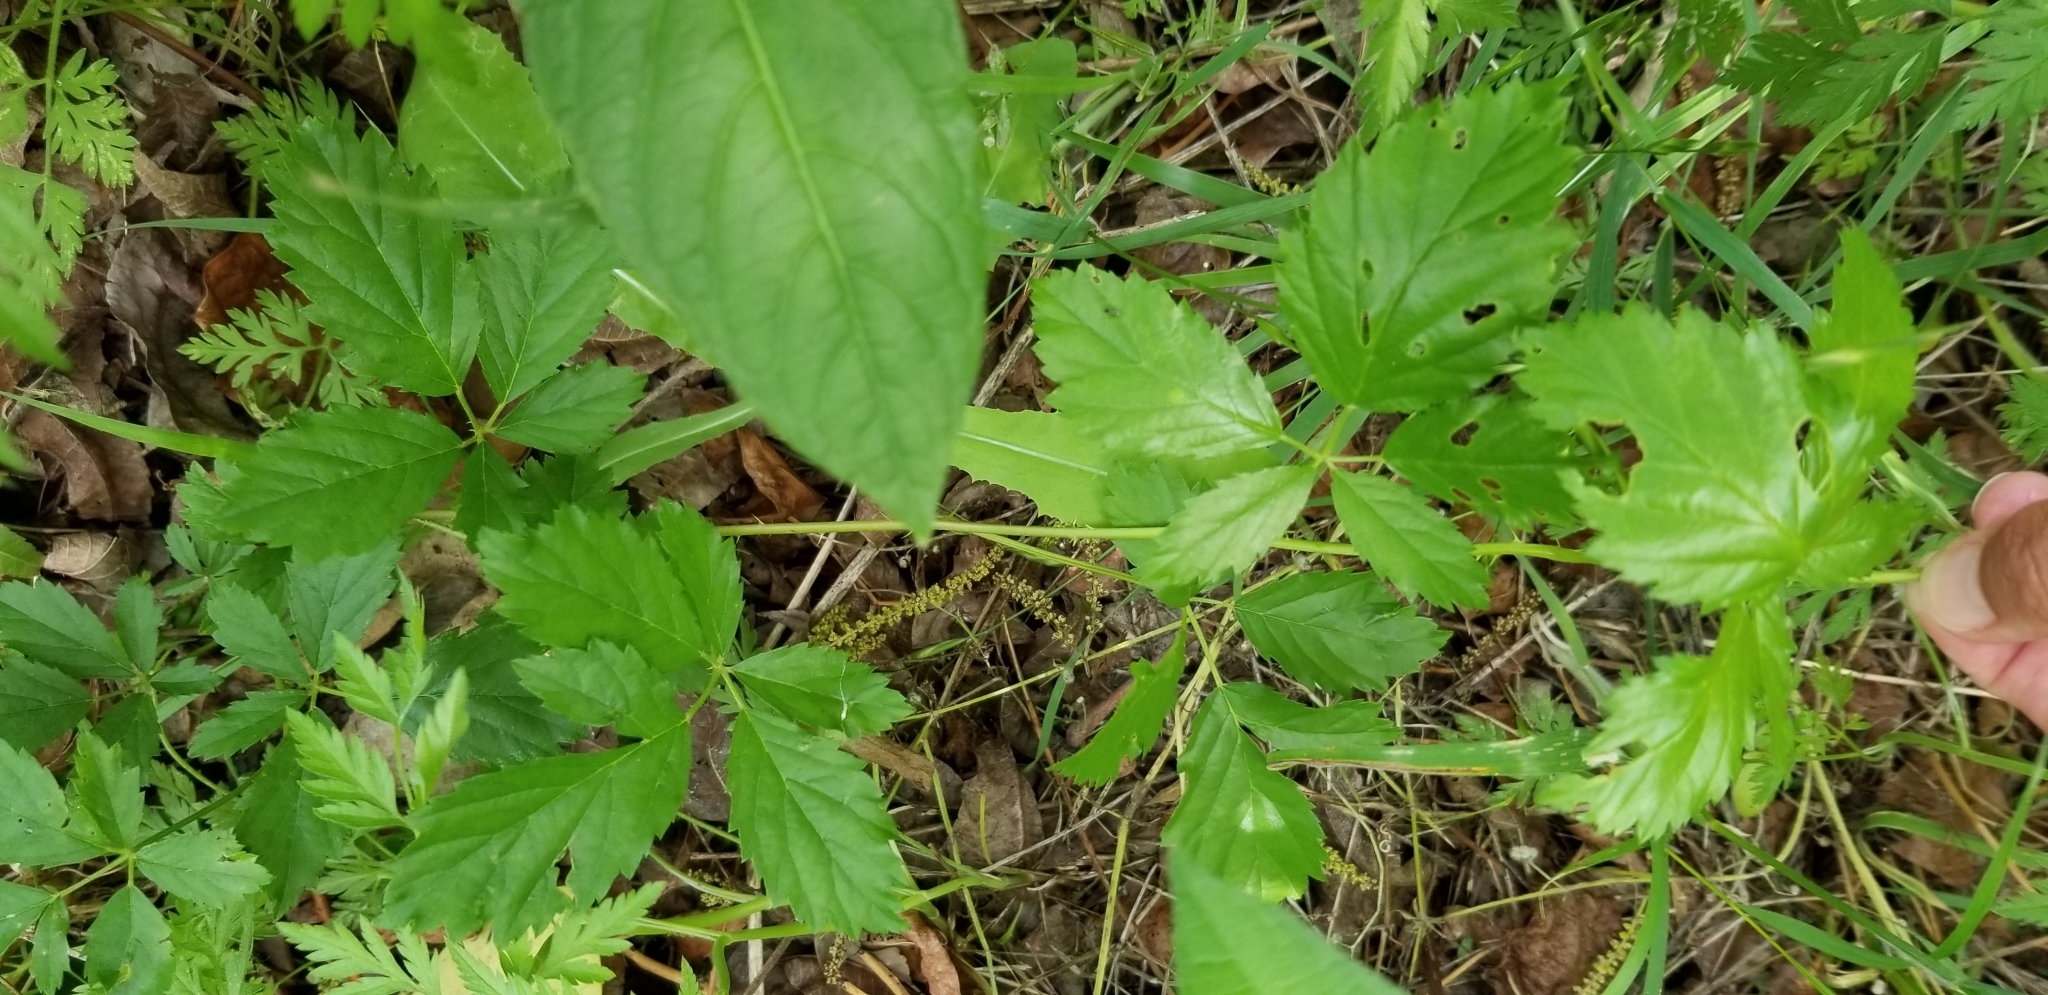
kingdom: Plantae
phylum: Tracheophyta
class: Magnoliopsida
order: Rosales
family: Rosaceae
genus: Rubus
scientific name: Rubus trivialis
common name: Southern dewberry
